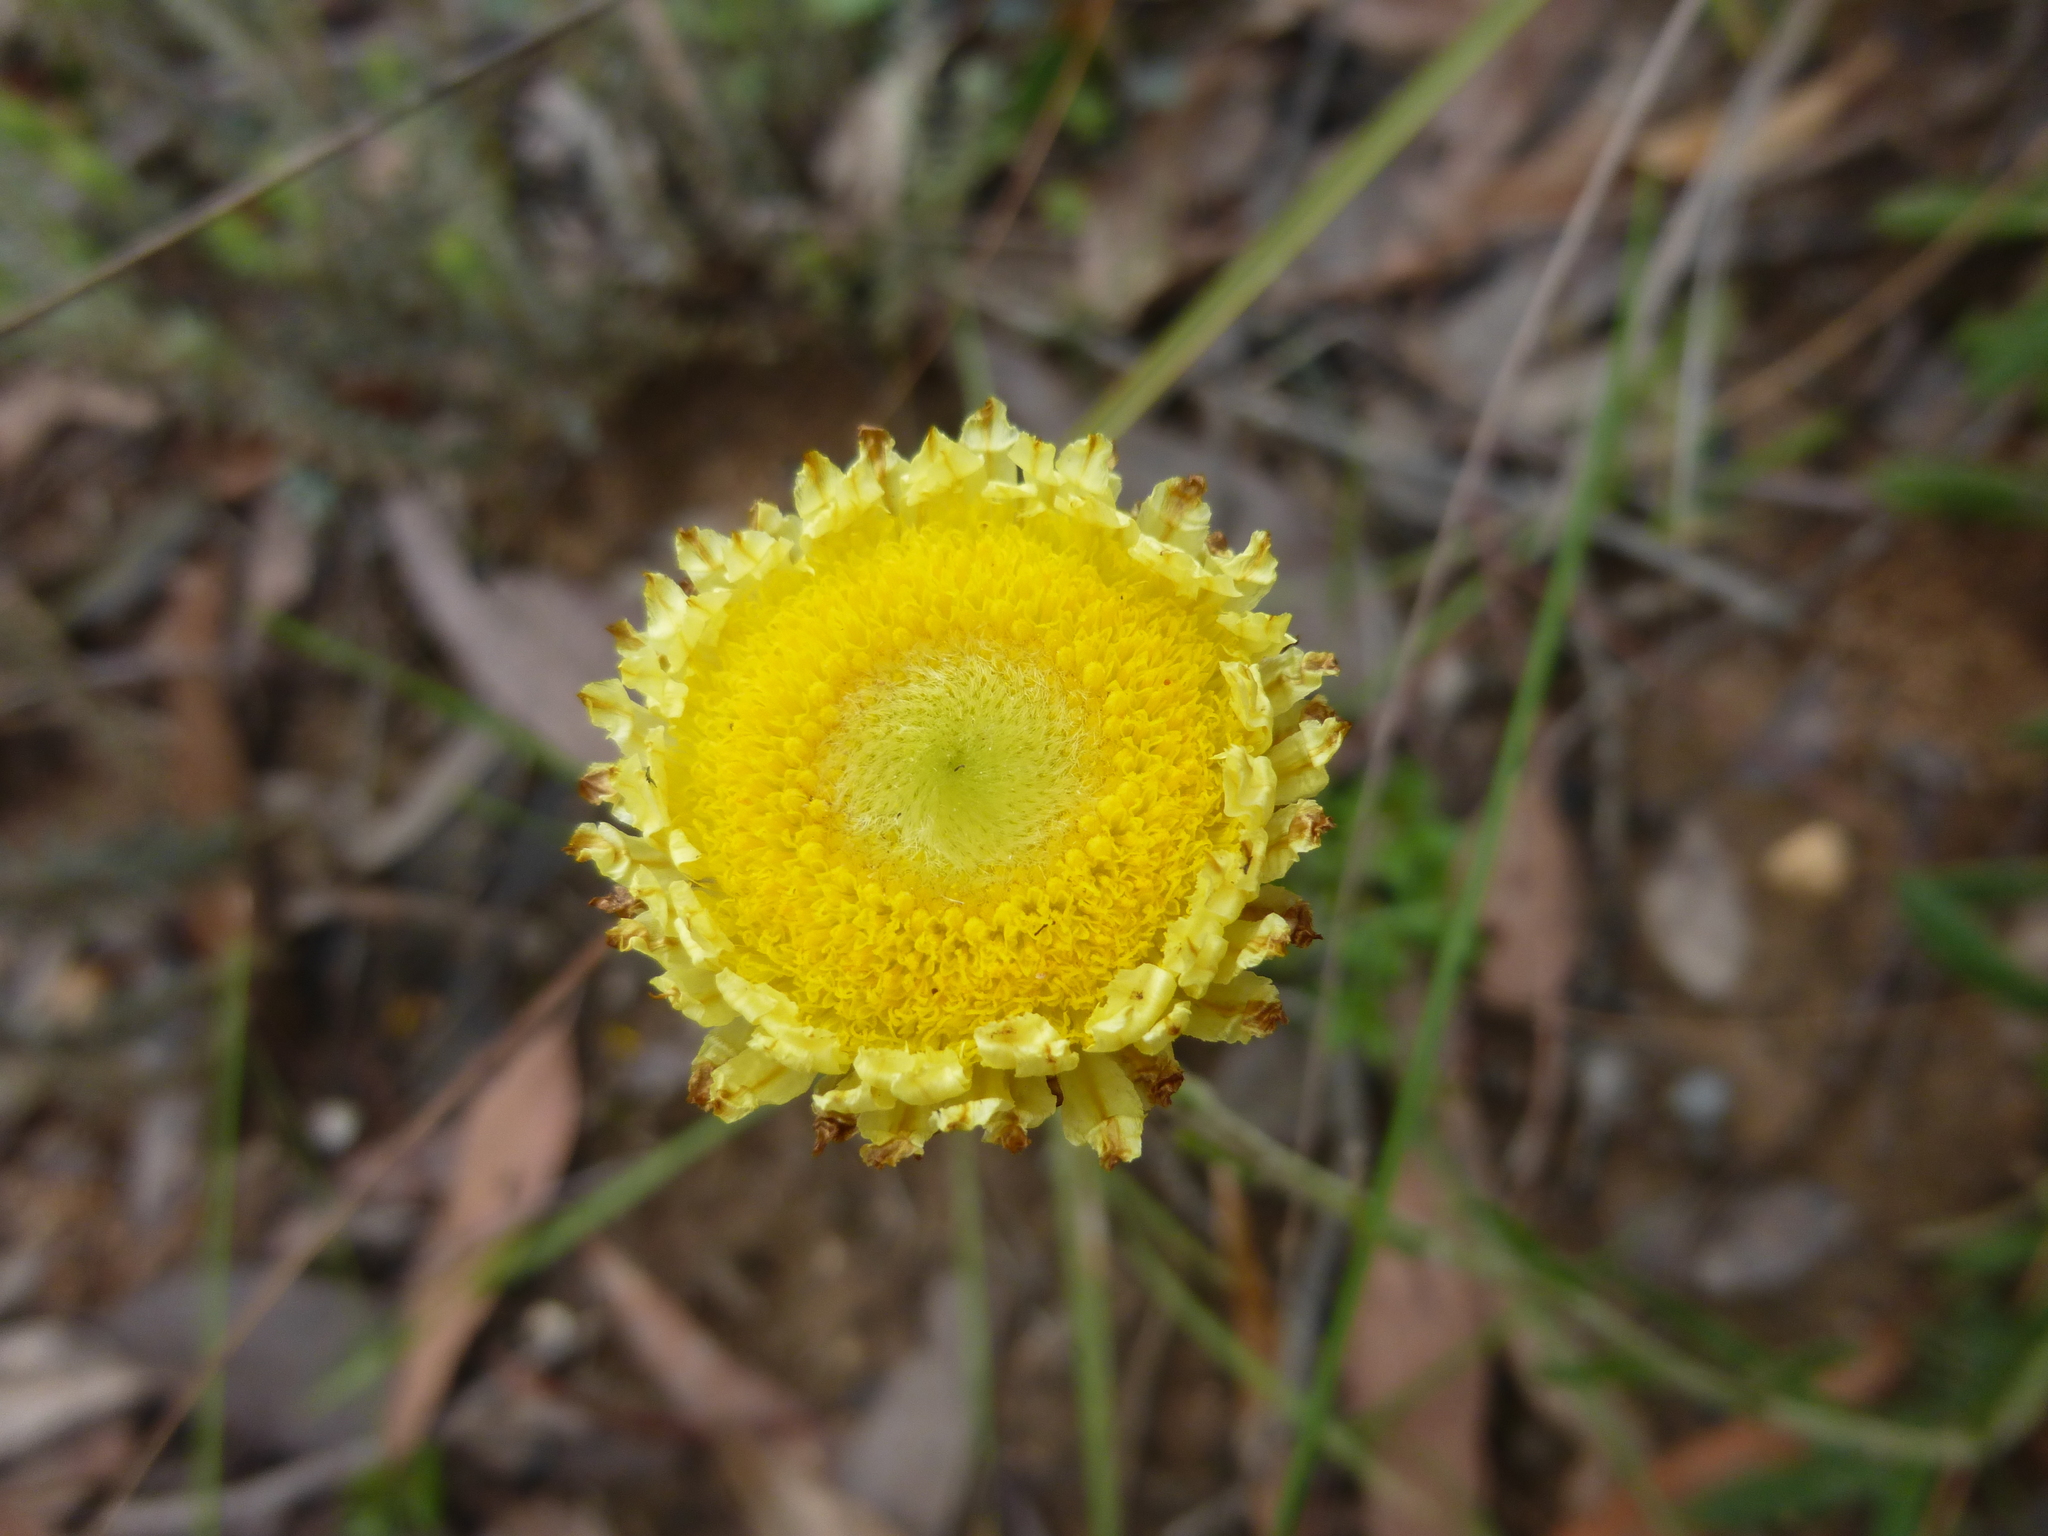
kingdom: Plantae
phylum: Tracheophyta
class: Magnoliopsida
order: Asterales
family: Asteraceae
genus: Coronidium
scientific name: Coronidium scorpioides
